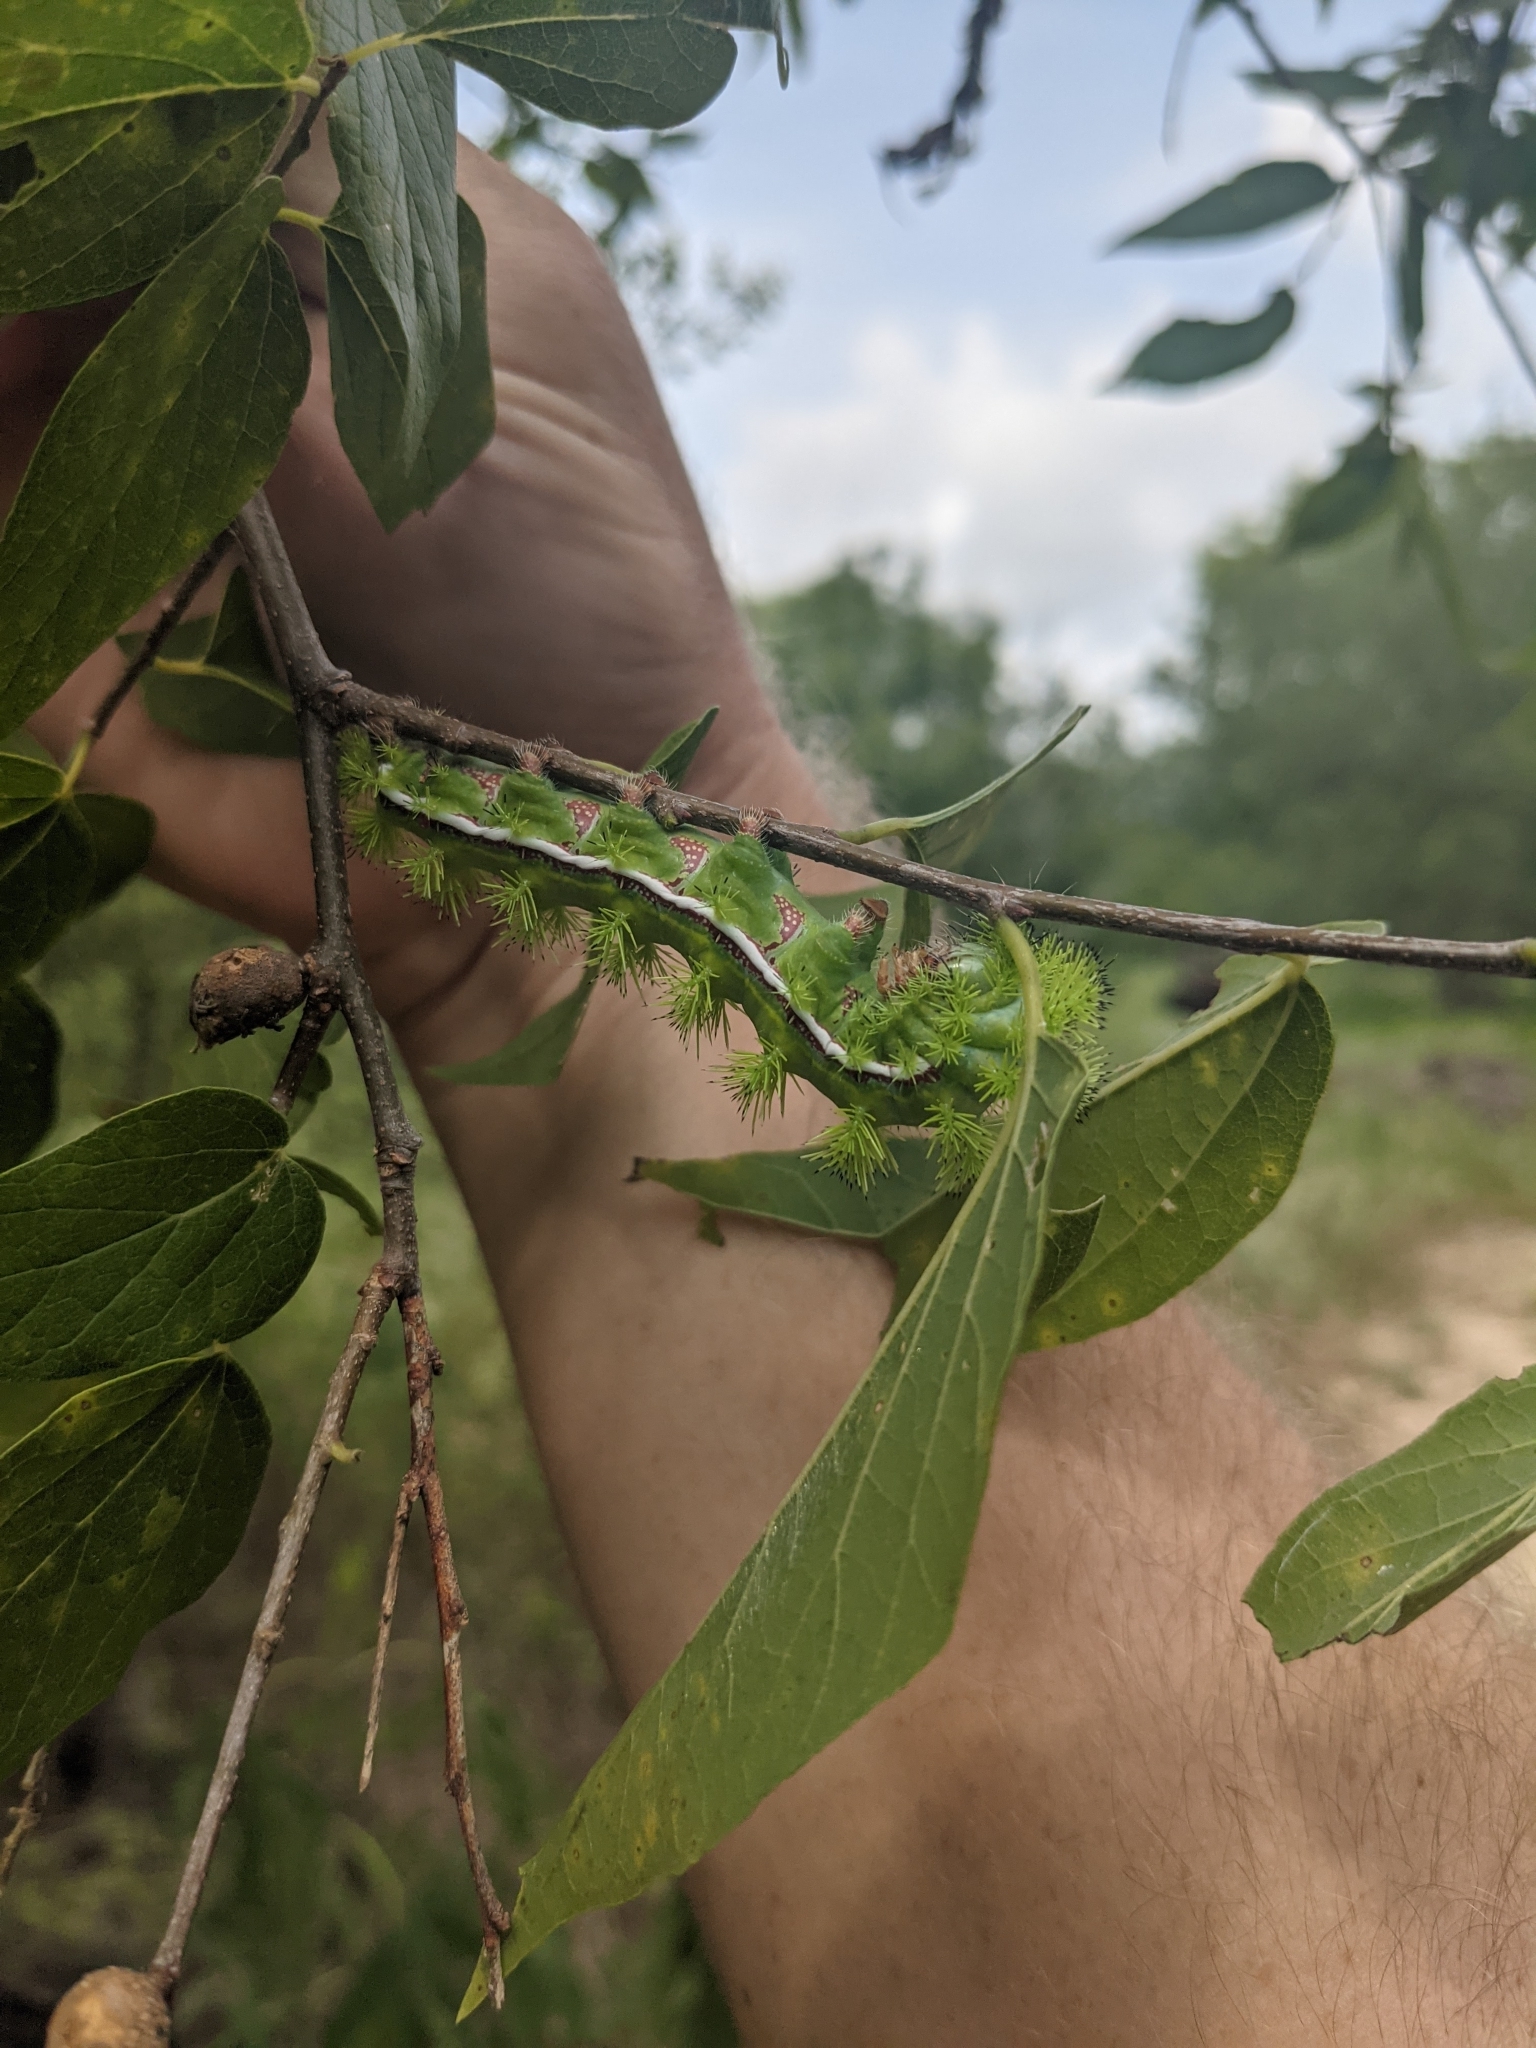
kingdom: Animalia
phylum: Arthropoda
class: Insecta
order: Lepidoptera
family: Saturniidae
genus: Automeris
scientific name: Automeris io
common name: Io moth
